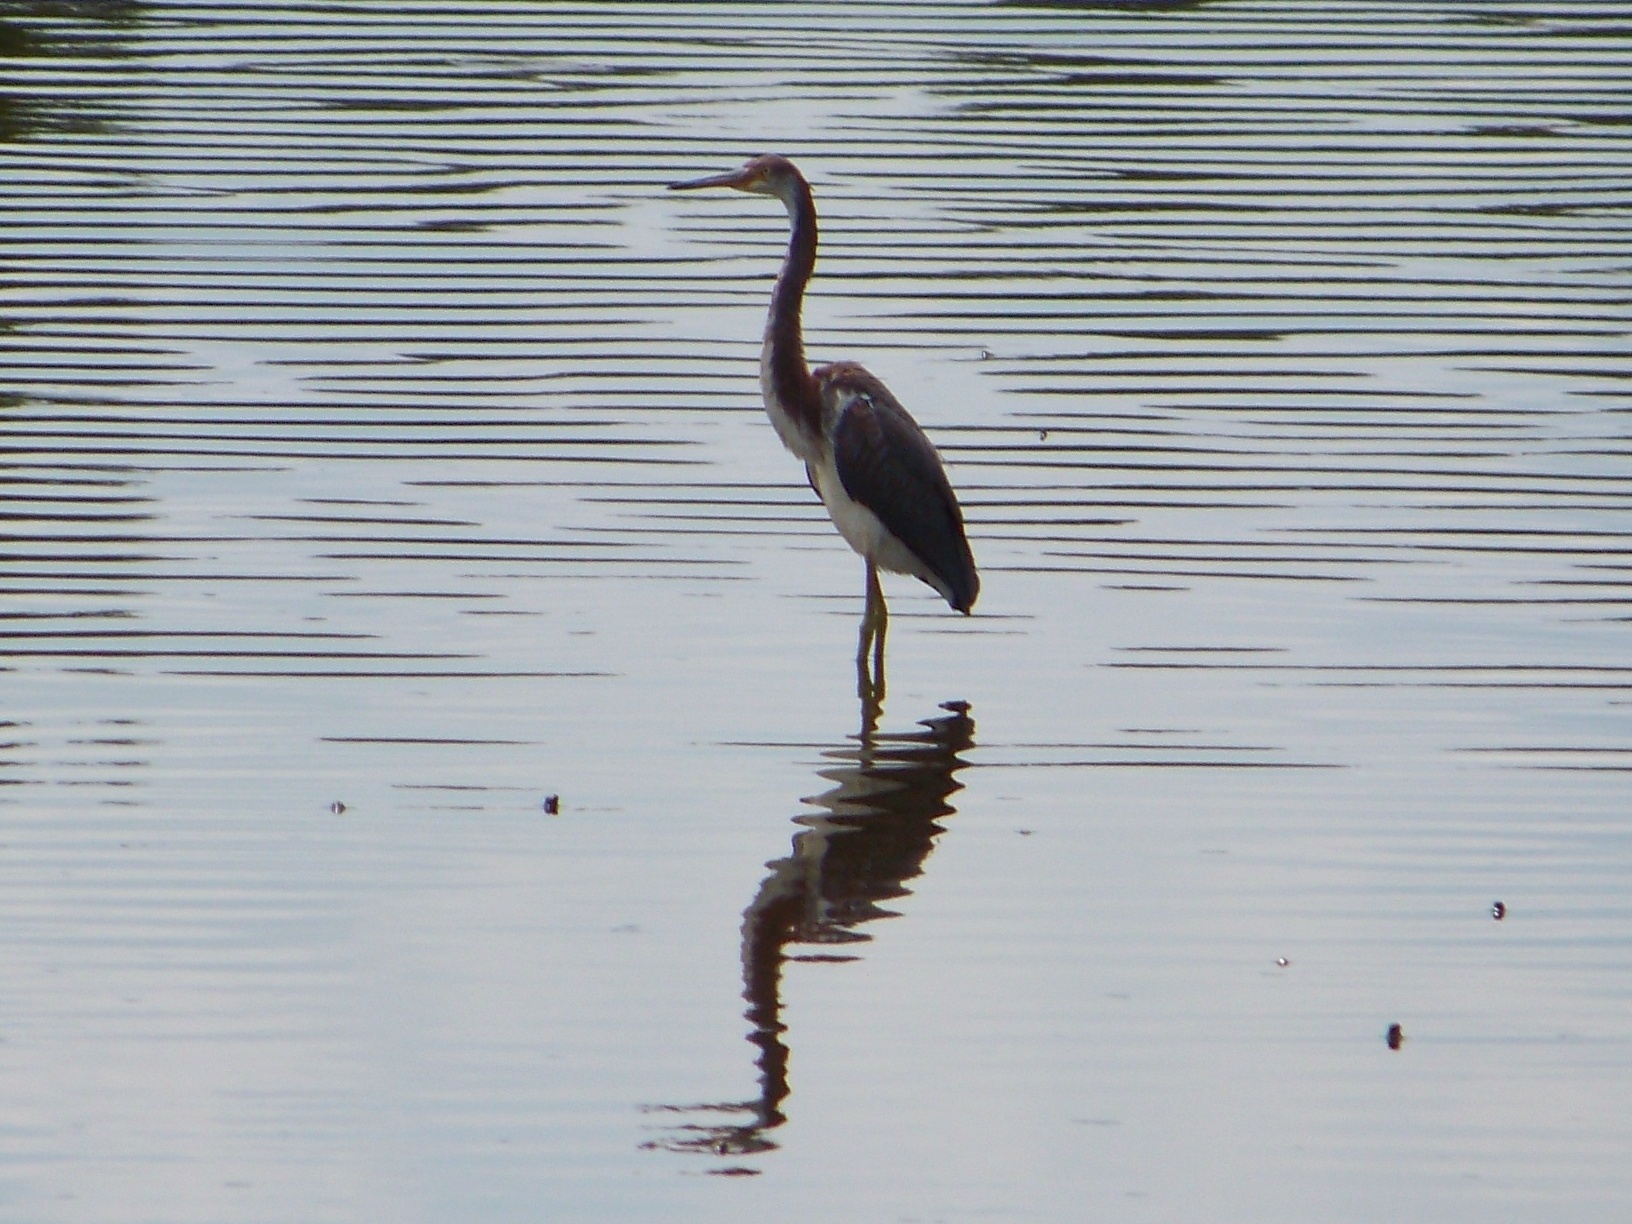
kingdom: Animalia
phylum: Chordata
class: Aves
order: Pelecaniformes
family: Ardeidae
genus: Egretta
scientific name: Egretta tricolor
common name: Tricolored heron
